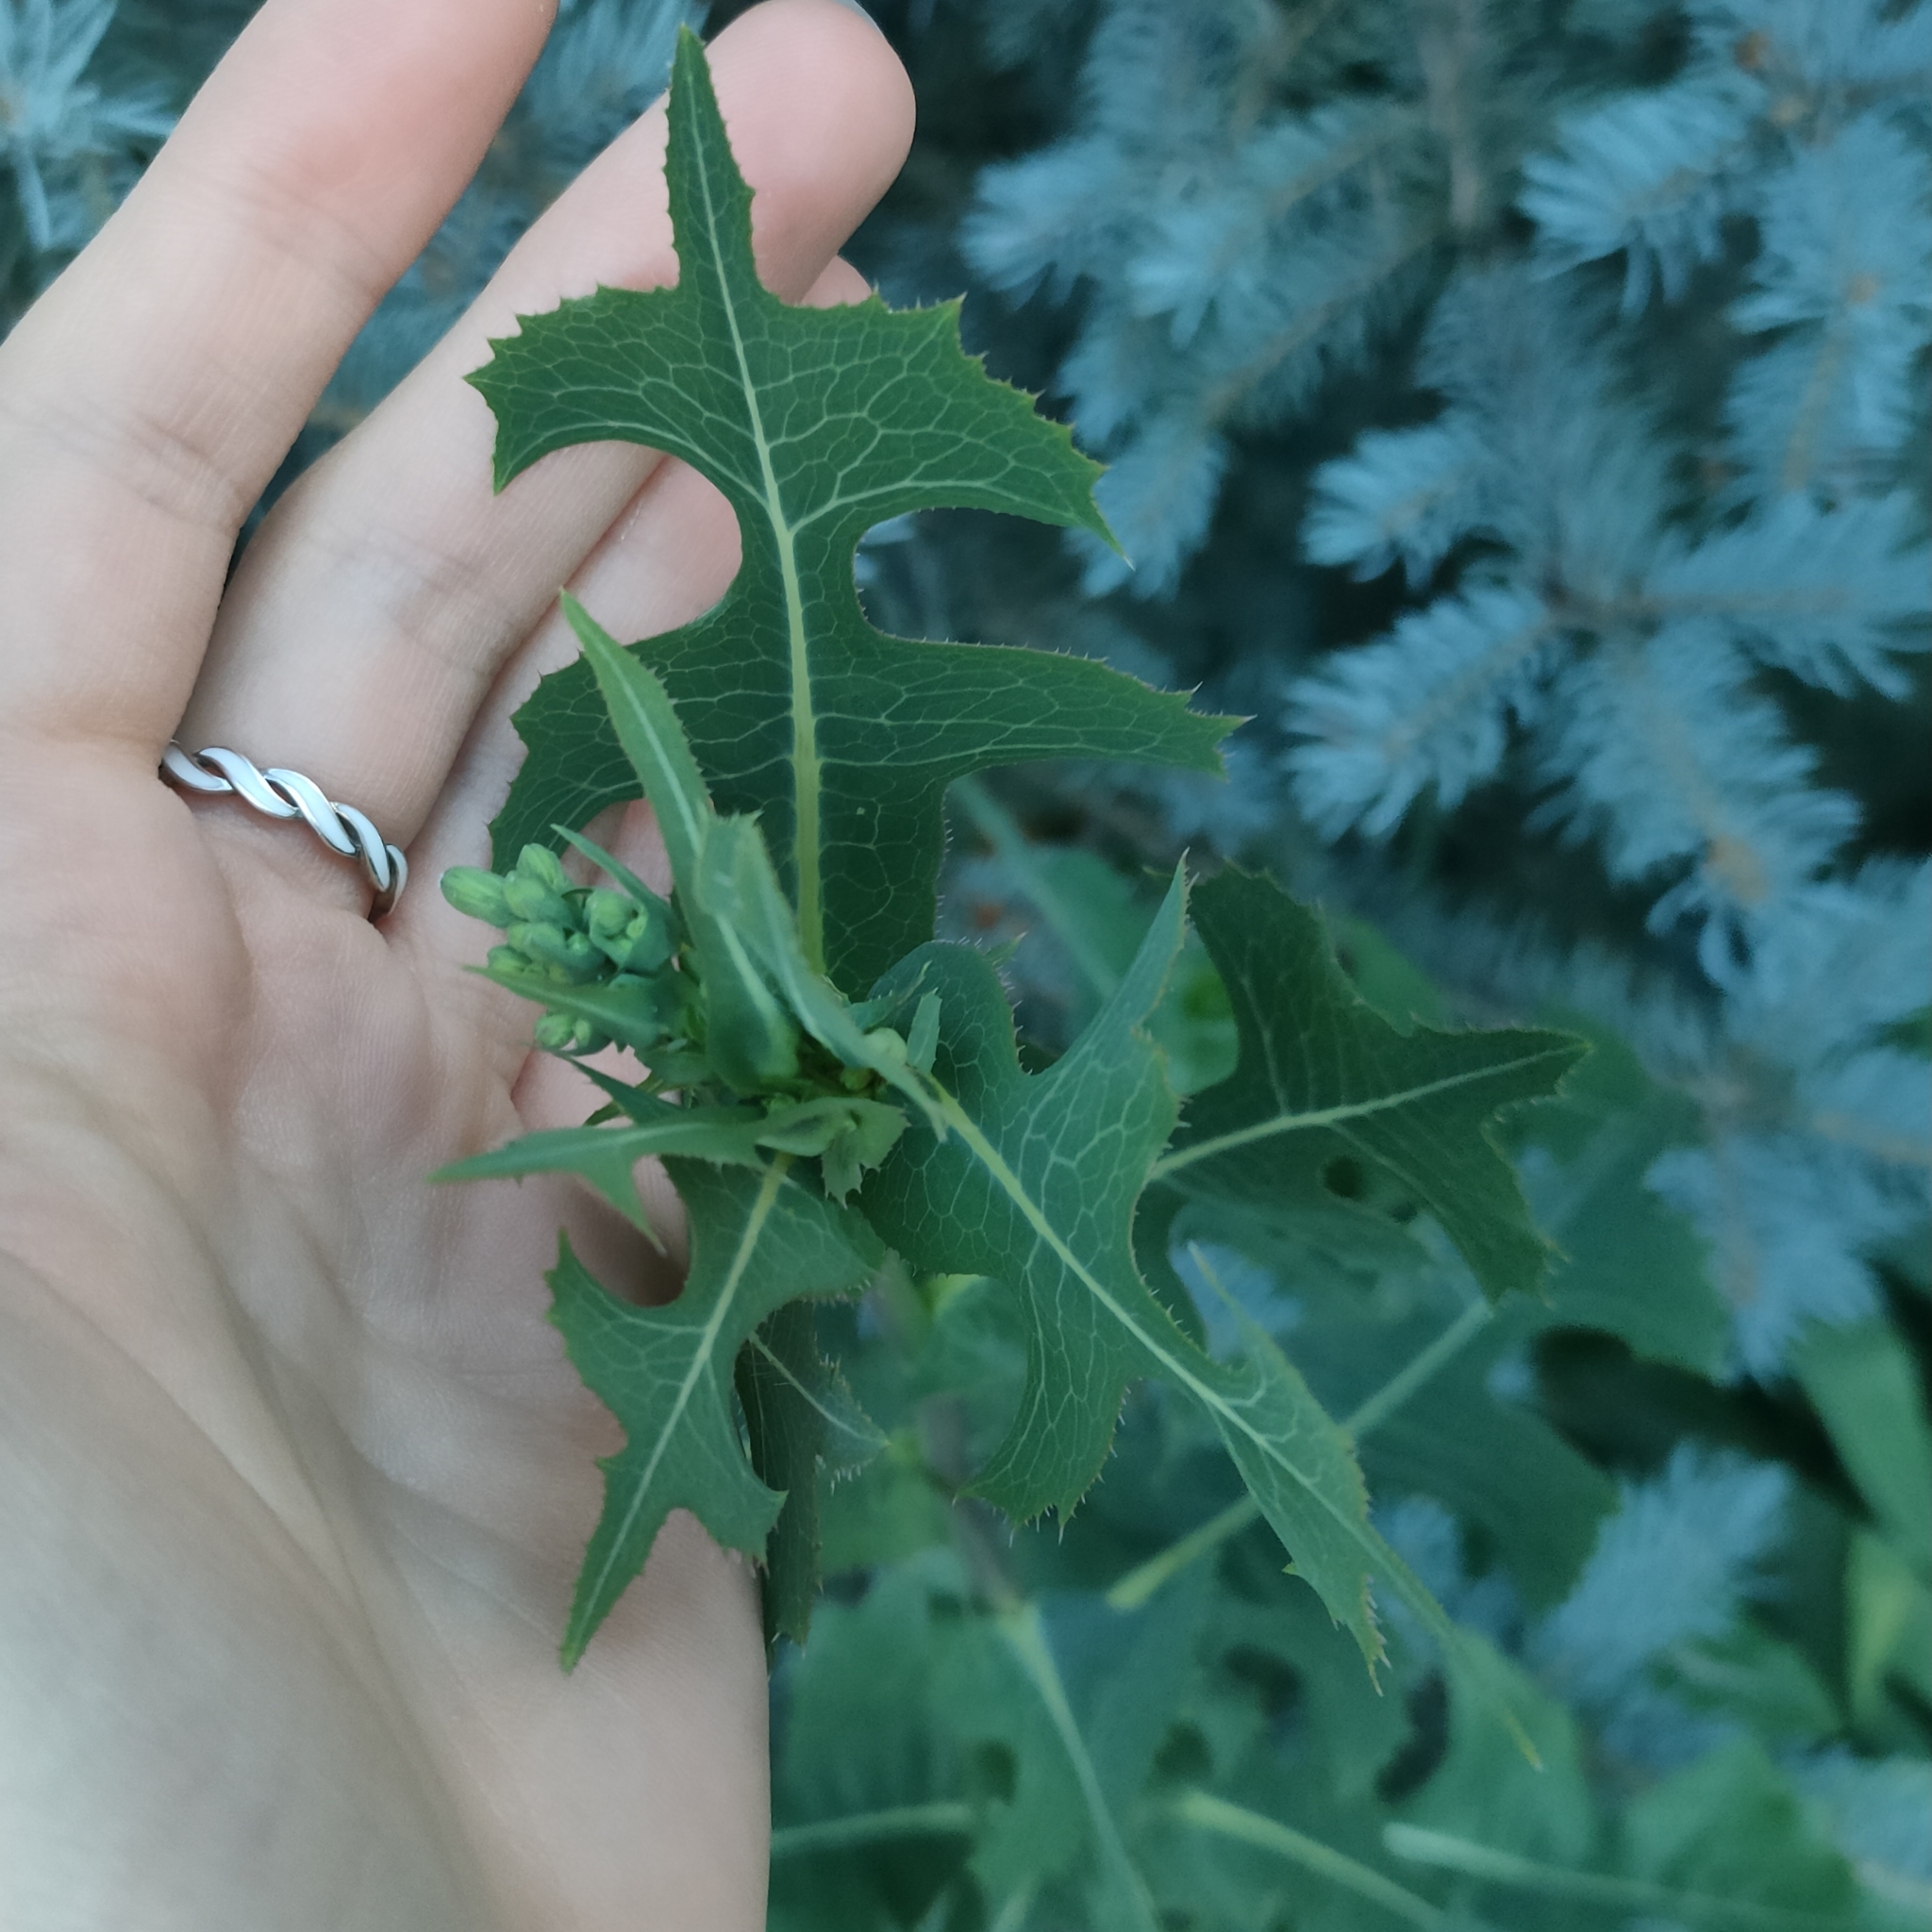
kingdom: Plantae
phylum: Tracheophyta
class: Magnoliopsida
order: Asterales
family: Asteraceae
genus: Lactuca
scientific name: Lactuca serriola
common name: Prickly lettuce
